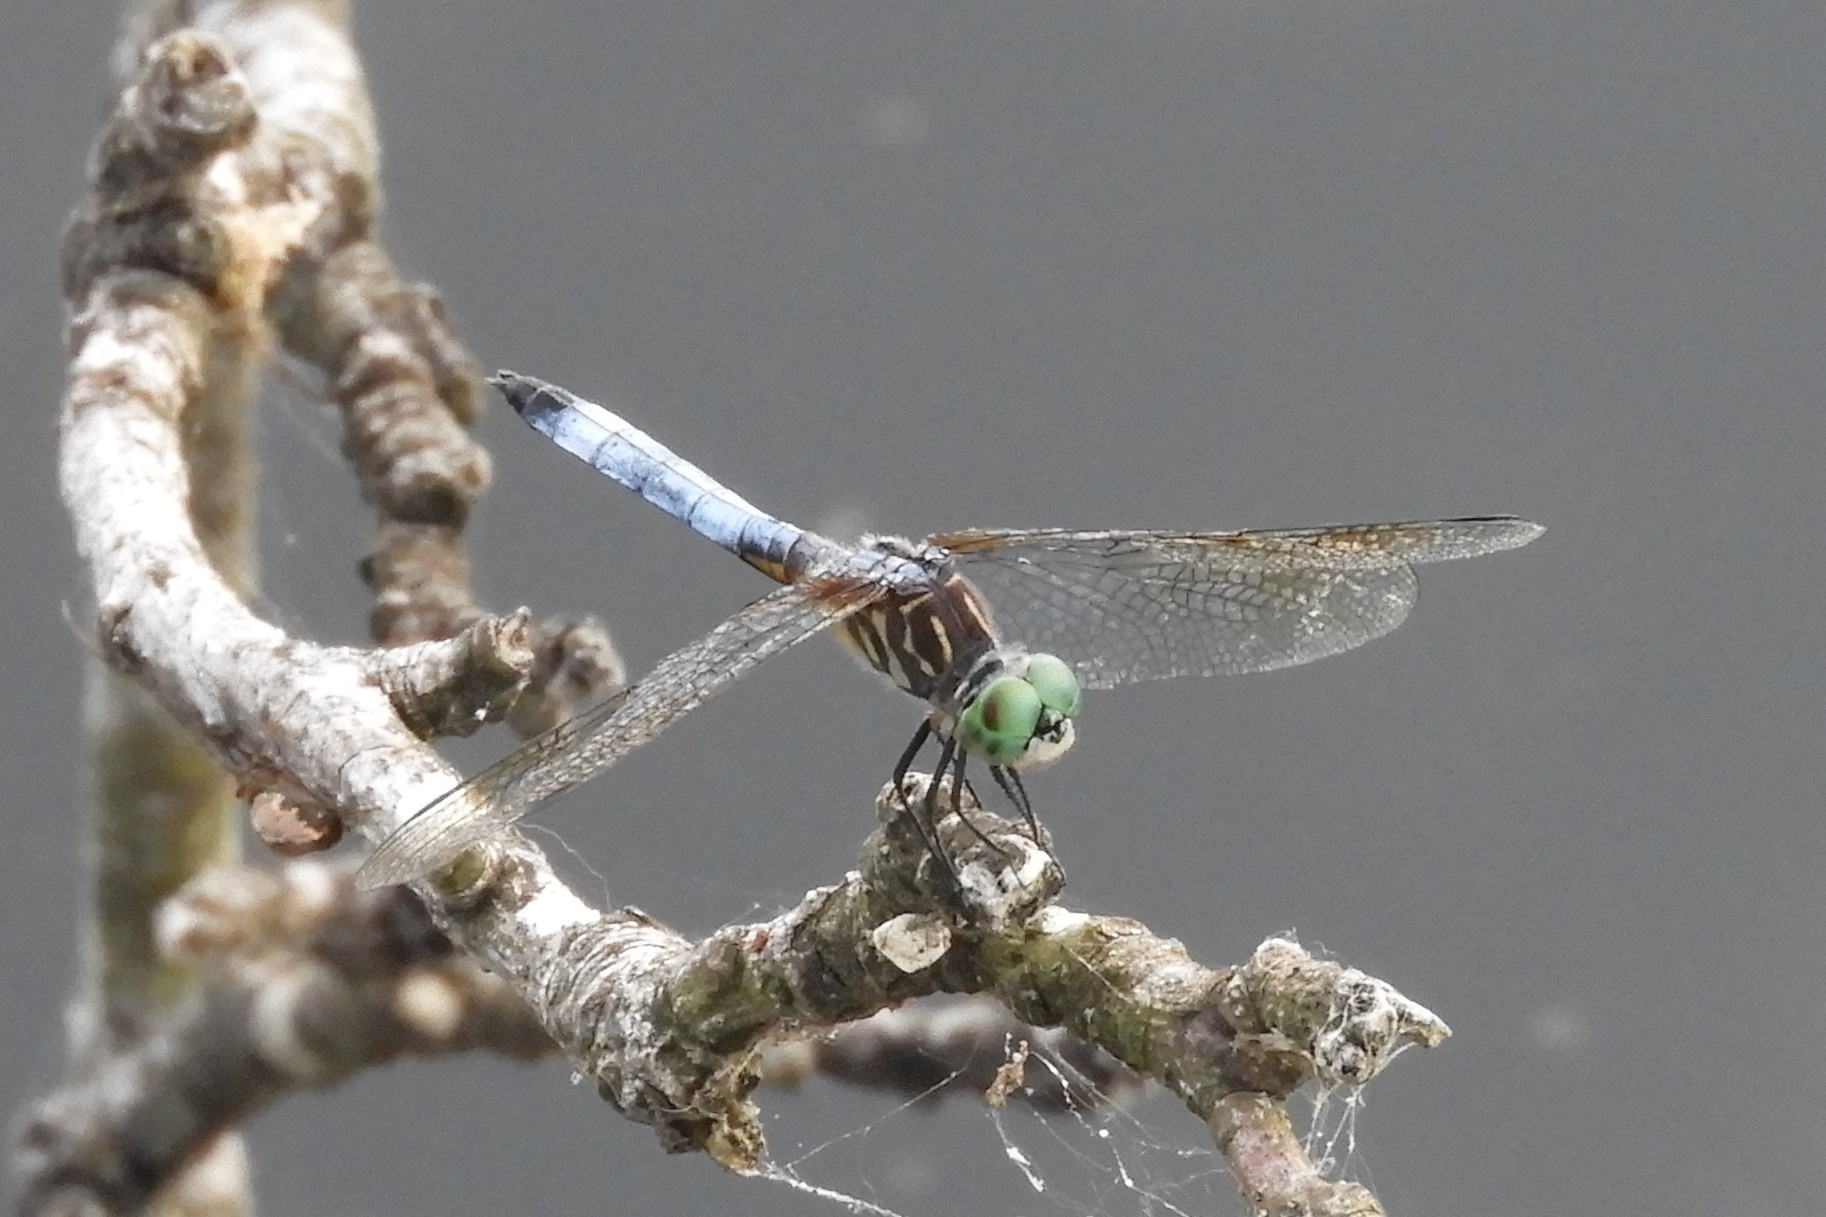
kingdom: Animalia
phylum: Arthropoda
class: Insecta
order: Odonata
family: Libellulidae
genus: Pachydiplax
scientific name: Pachydiplax longipennis
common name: Blue dasher
